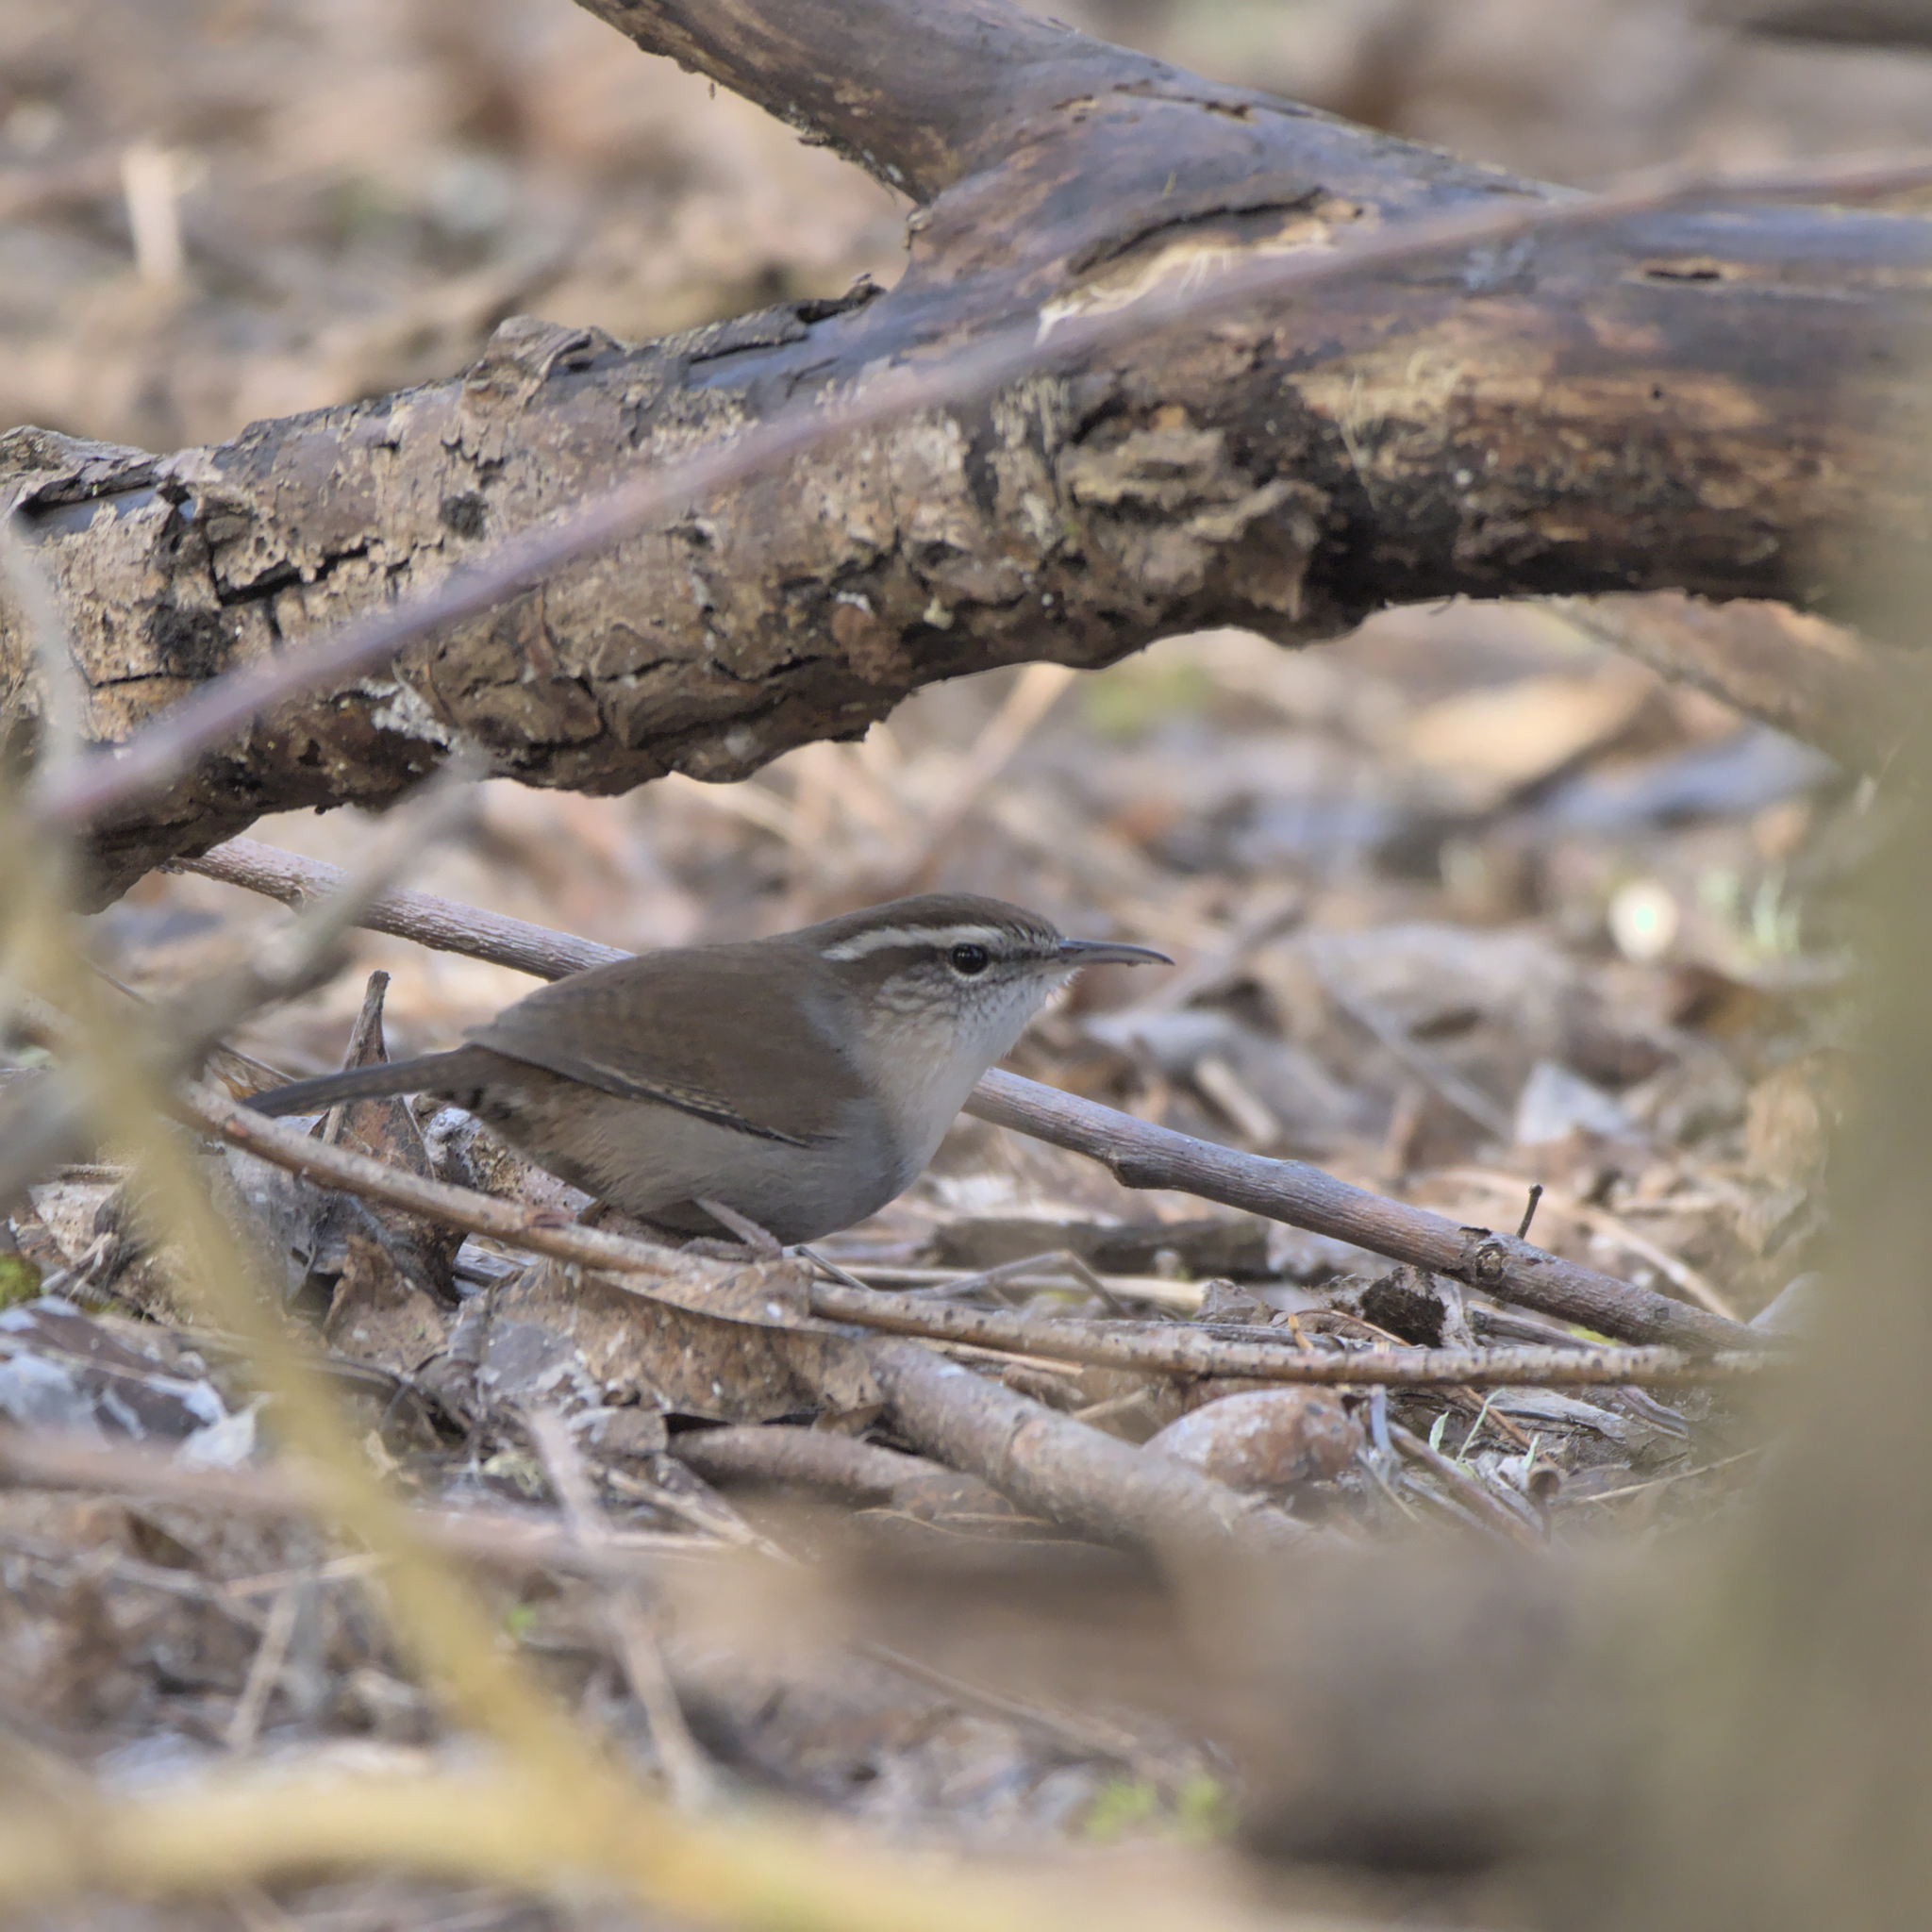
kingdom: Animalia
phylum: Chordata
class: Aves
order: Passeriformes
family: Troglodytidae
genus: Thryomanes
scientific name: Thryomanes bewickii
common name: Bewick's wren
